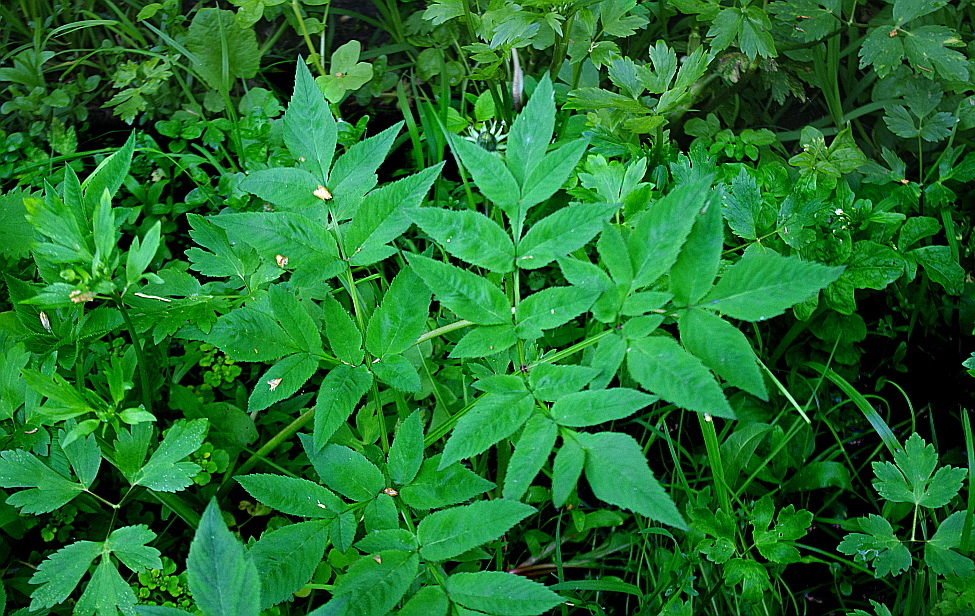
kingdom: Plantae
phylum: Tracheophyta
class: Magnoliopsida
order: Apiales
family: Apiaceae
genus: Angelica
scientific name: Angelica sylvestris
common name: Wild angelica
